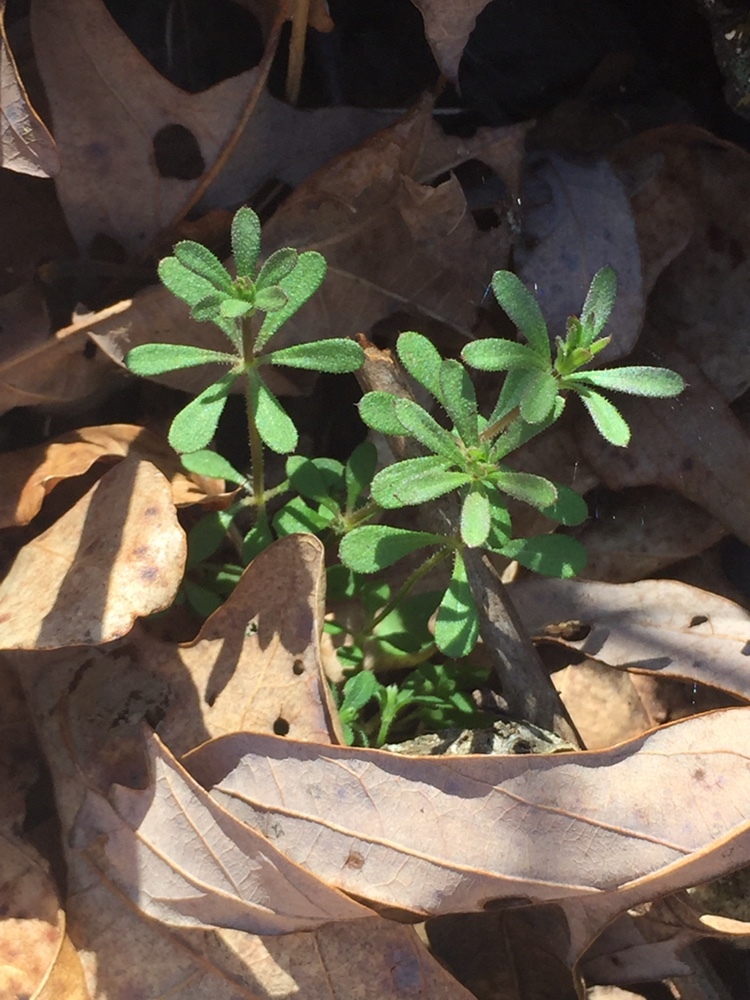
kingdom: Plantae
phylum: Tracheophyta
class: Magnoliopsida
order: Gentianales
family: Rubiaceae
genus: Galium
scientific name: Galium aparine
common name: Cleavers
